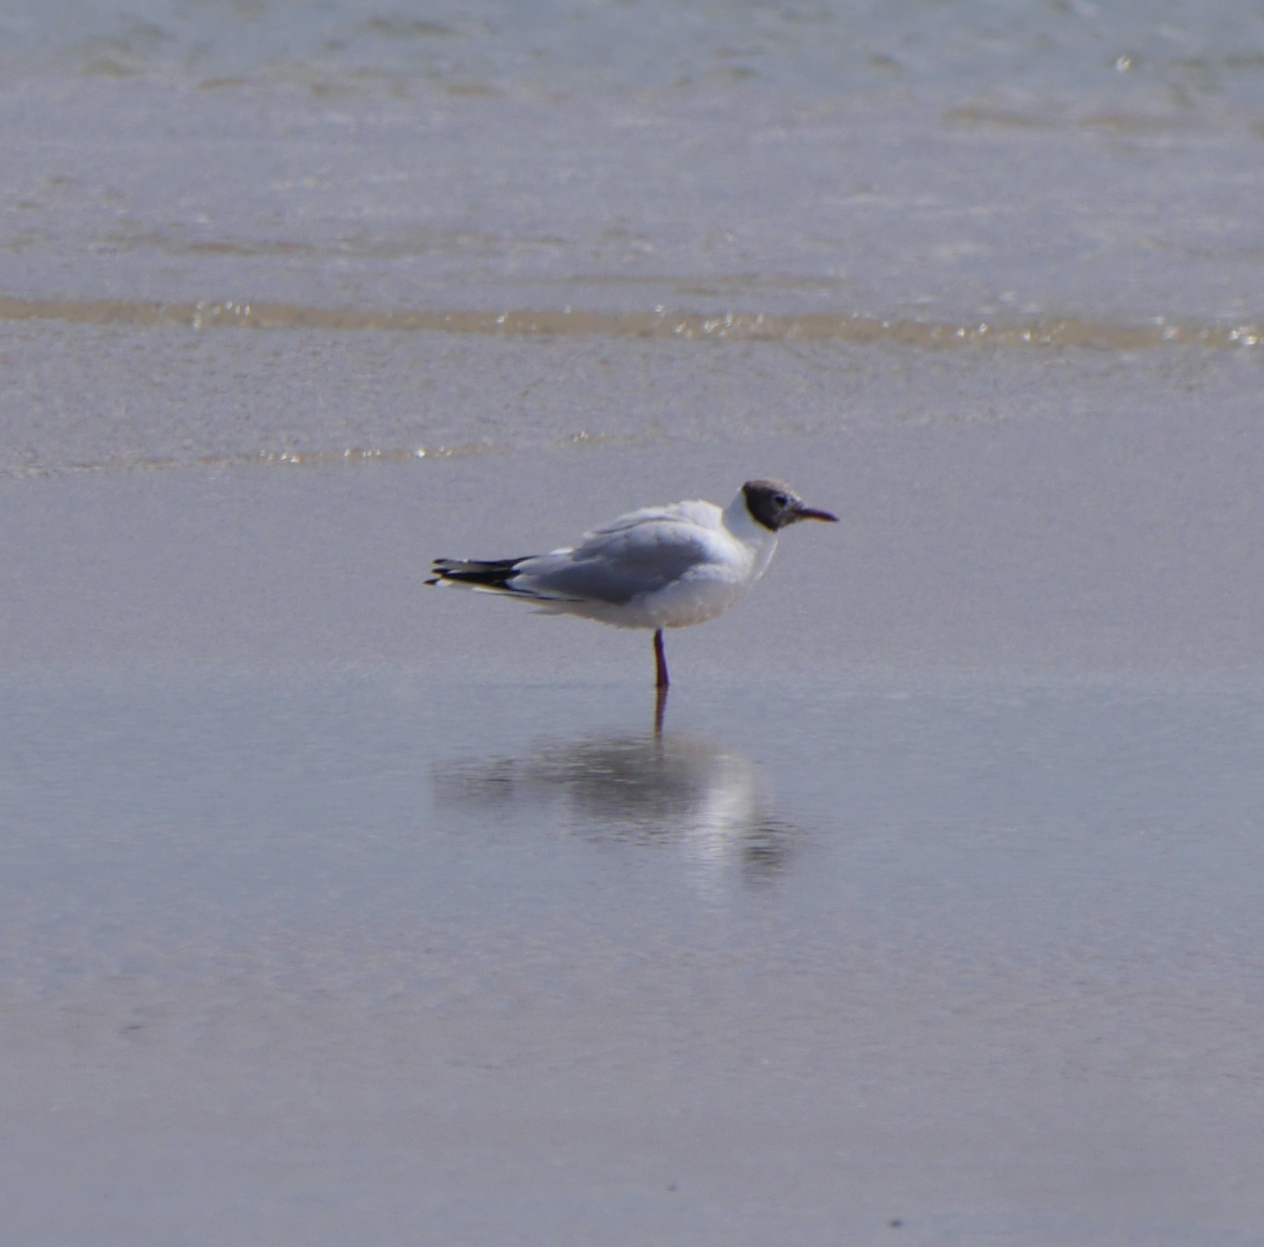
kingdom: Animalia
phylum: Chordata
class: Aves
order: Charadriiformes
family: Laridae
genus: Chroicocephalus
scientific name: Chroicocephalus ridibundus
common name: Black-headed gull
